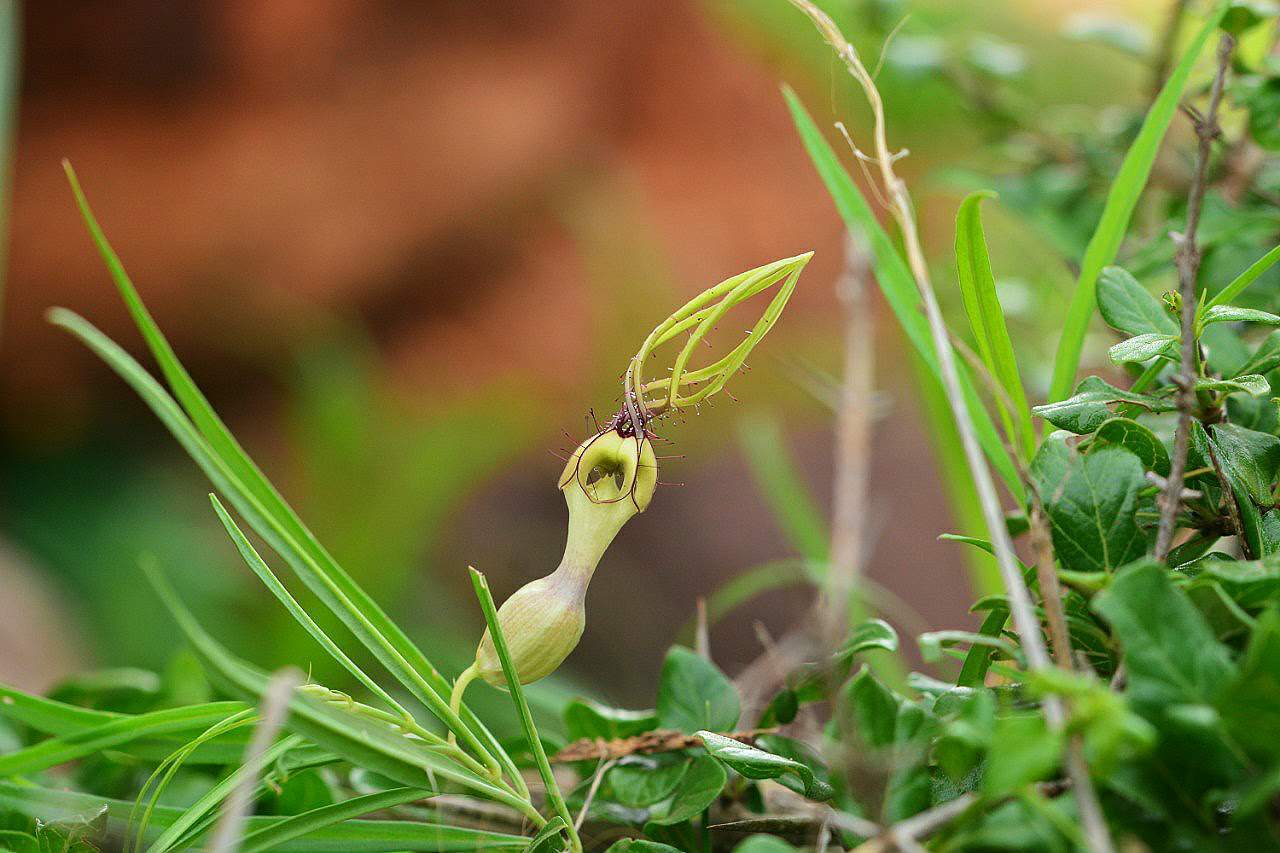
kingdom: Plantae
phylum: Tracheophyta
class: Magnoliopsida
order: Gentianales
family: Apocynaceae
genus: Ceropegia
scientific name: Ceropegia spiralis
